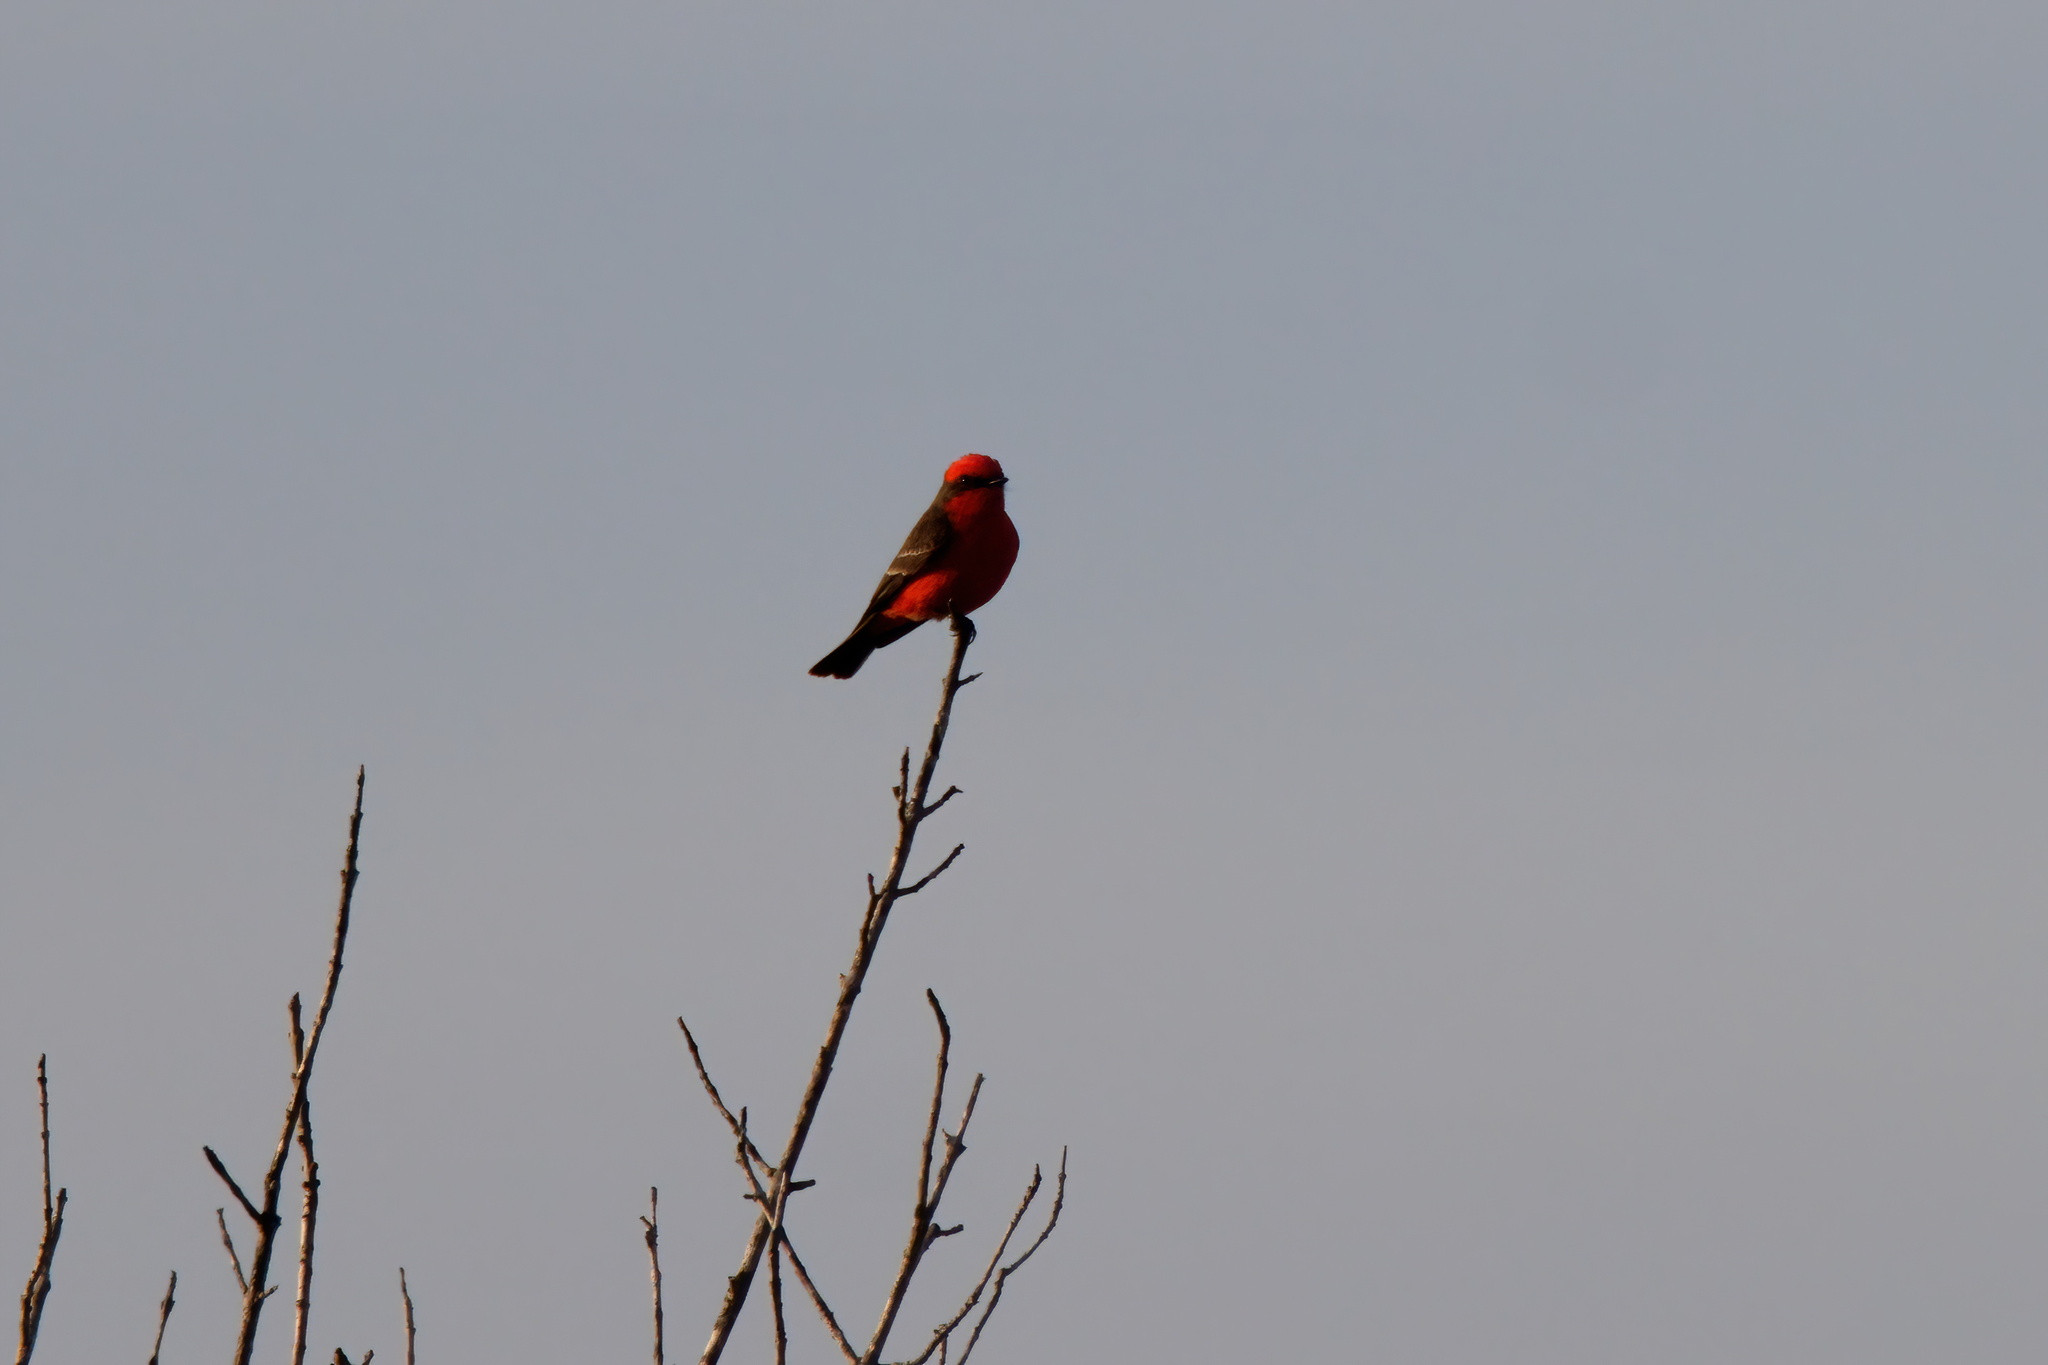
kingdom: Animalia
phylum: Chordata
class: Aves
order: Passeriformes
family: Tyrannidae
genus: Pyrocephalus
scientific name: Pyrocephalus rubinus
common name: Vermilion flycatcher
